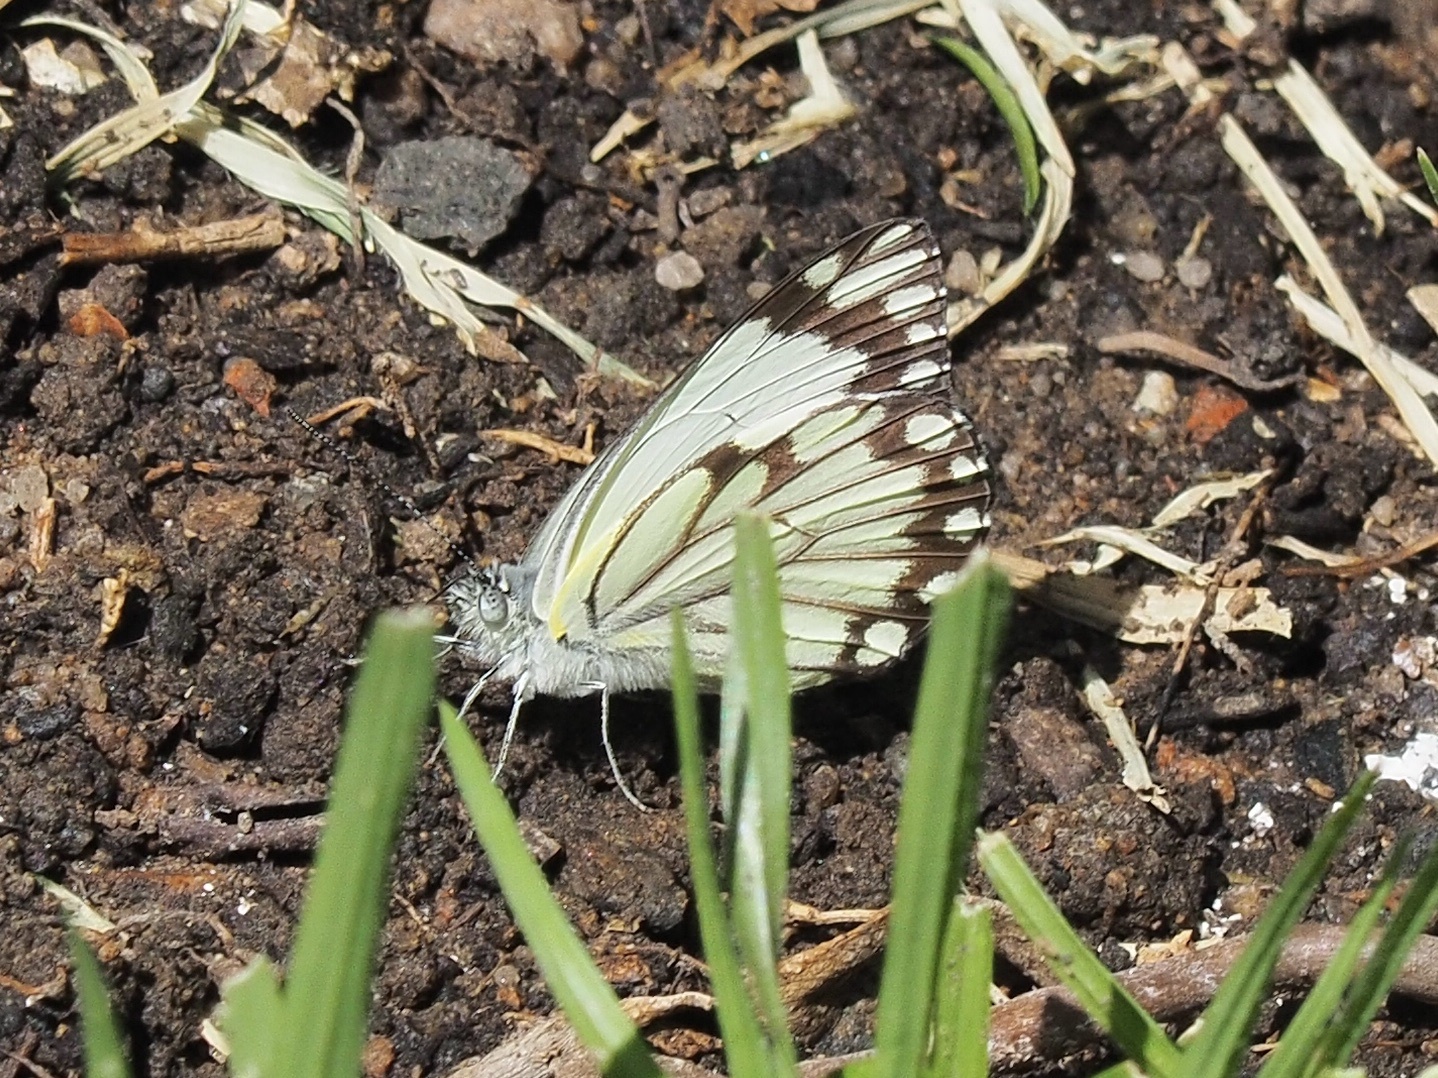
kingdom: Animalia
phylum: Arthropoda
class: Insecta
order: Lepidoptera
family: Pieridae
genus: Belenois
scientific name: Belenois creona
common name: African caper white
